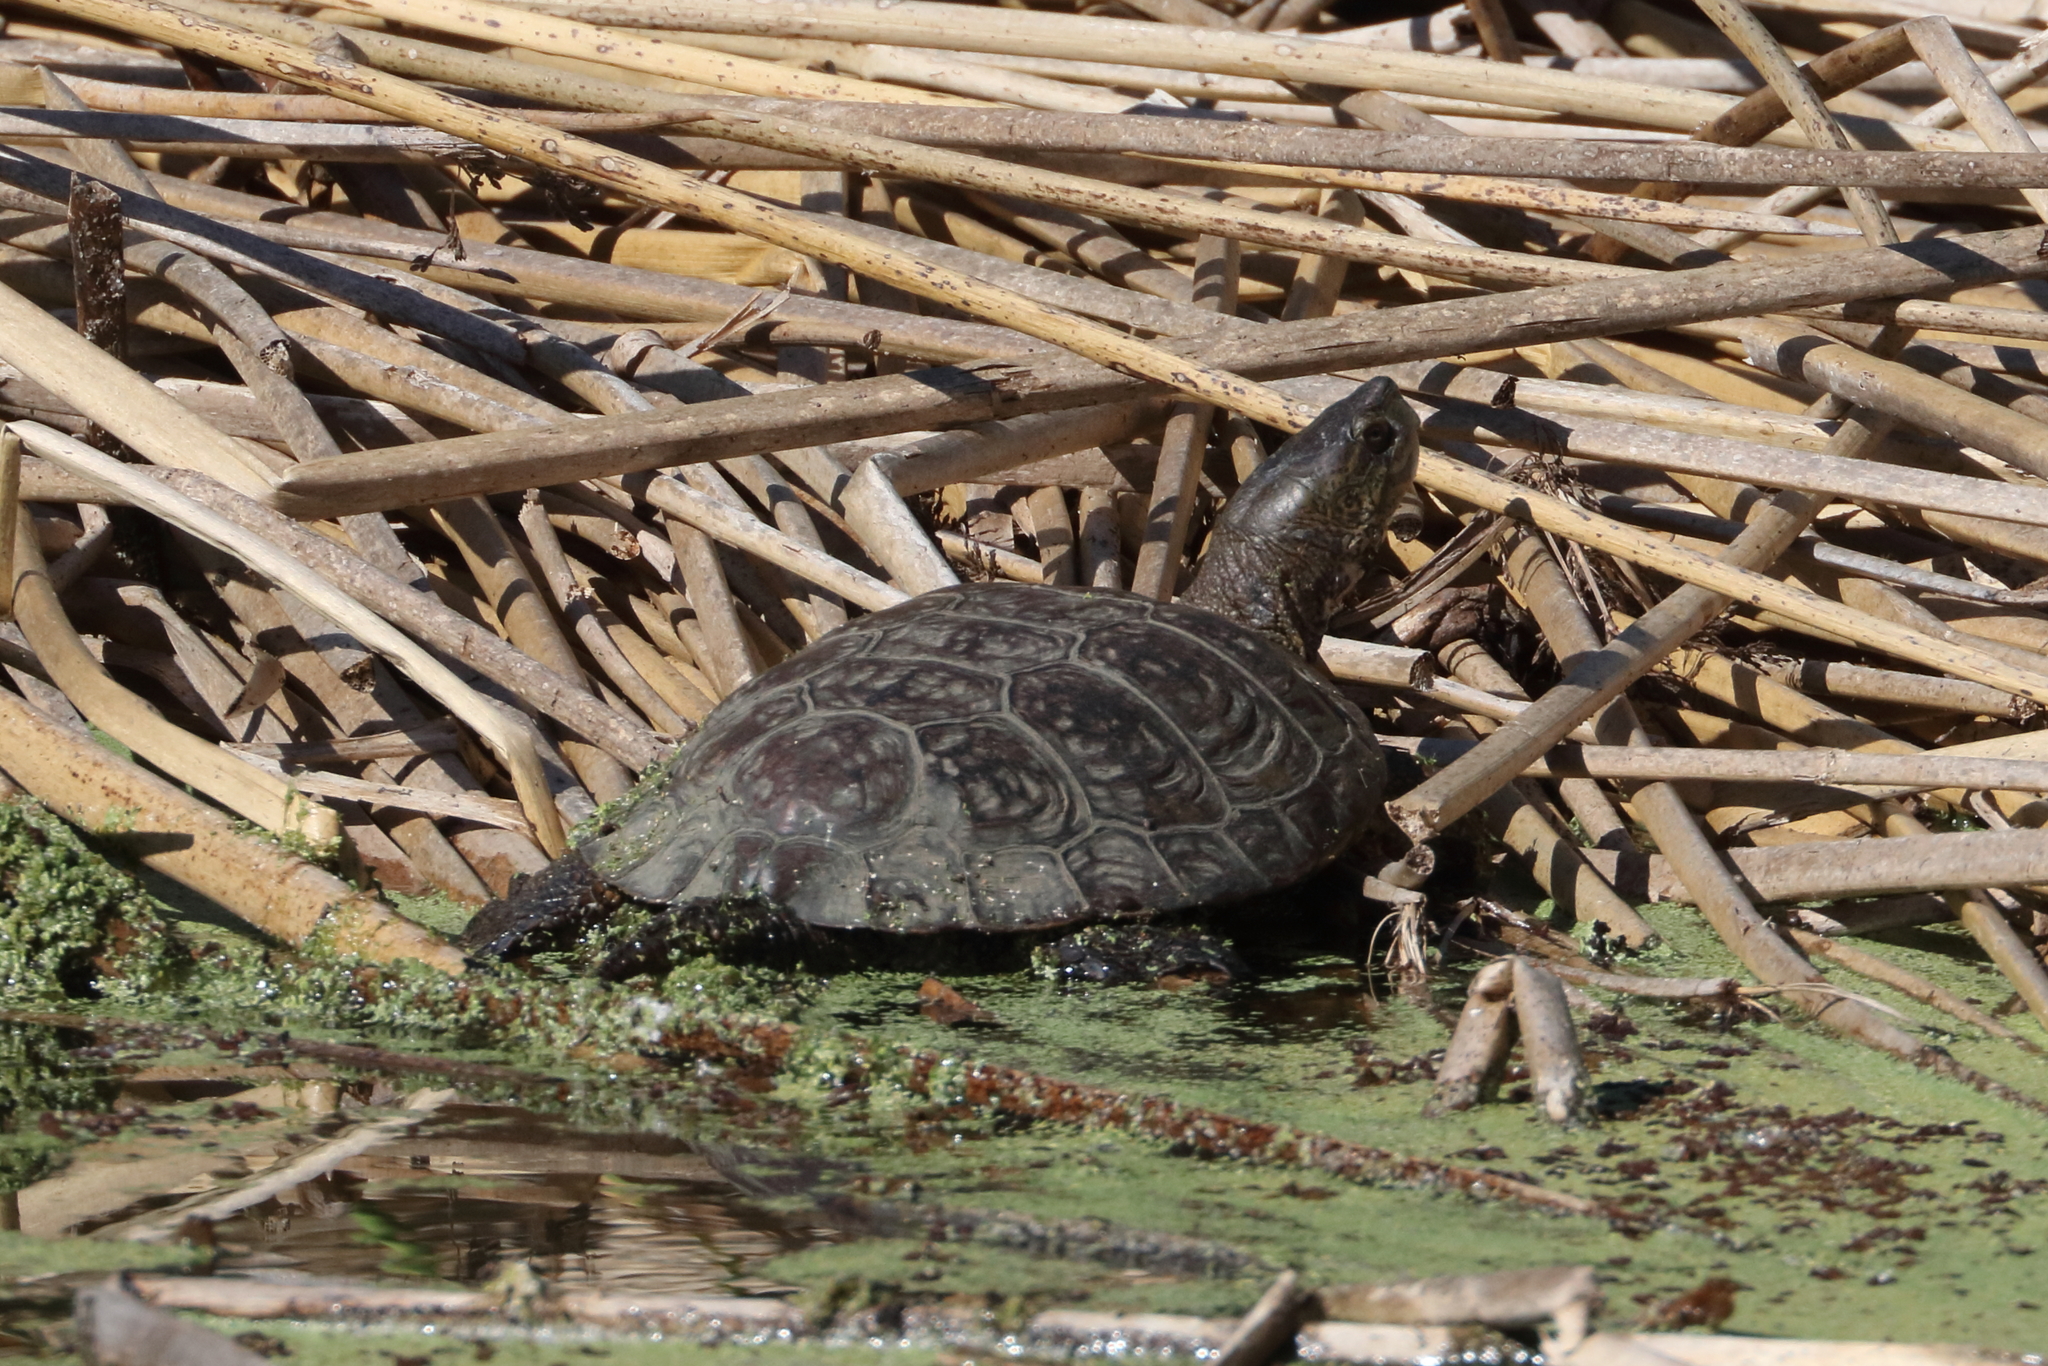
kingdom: Animalia
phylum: Chordata
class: Testudines
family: Emydidae
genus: Actinemys
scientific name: Actinemys marmorata
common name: Western pond turtle
